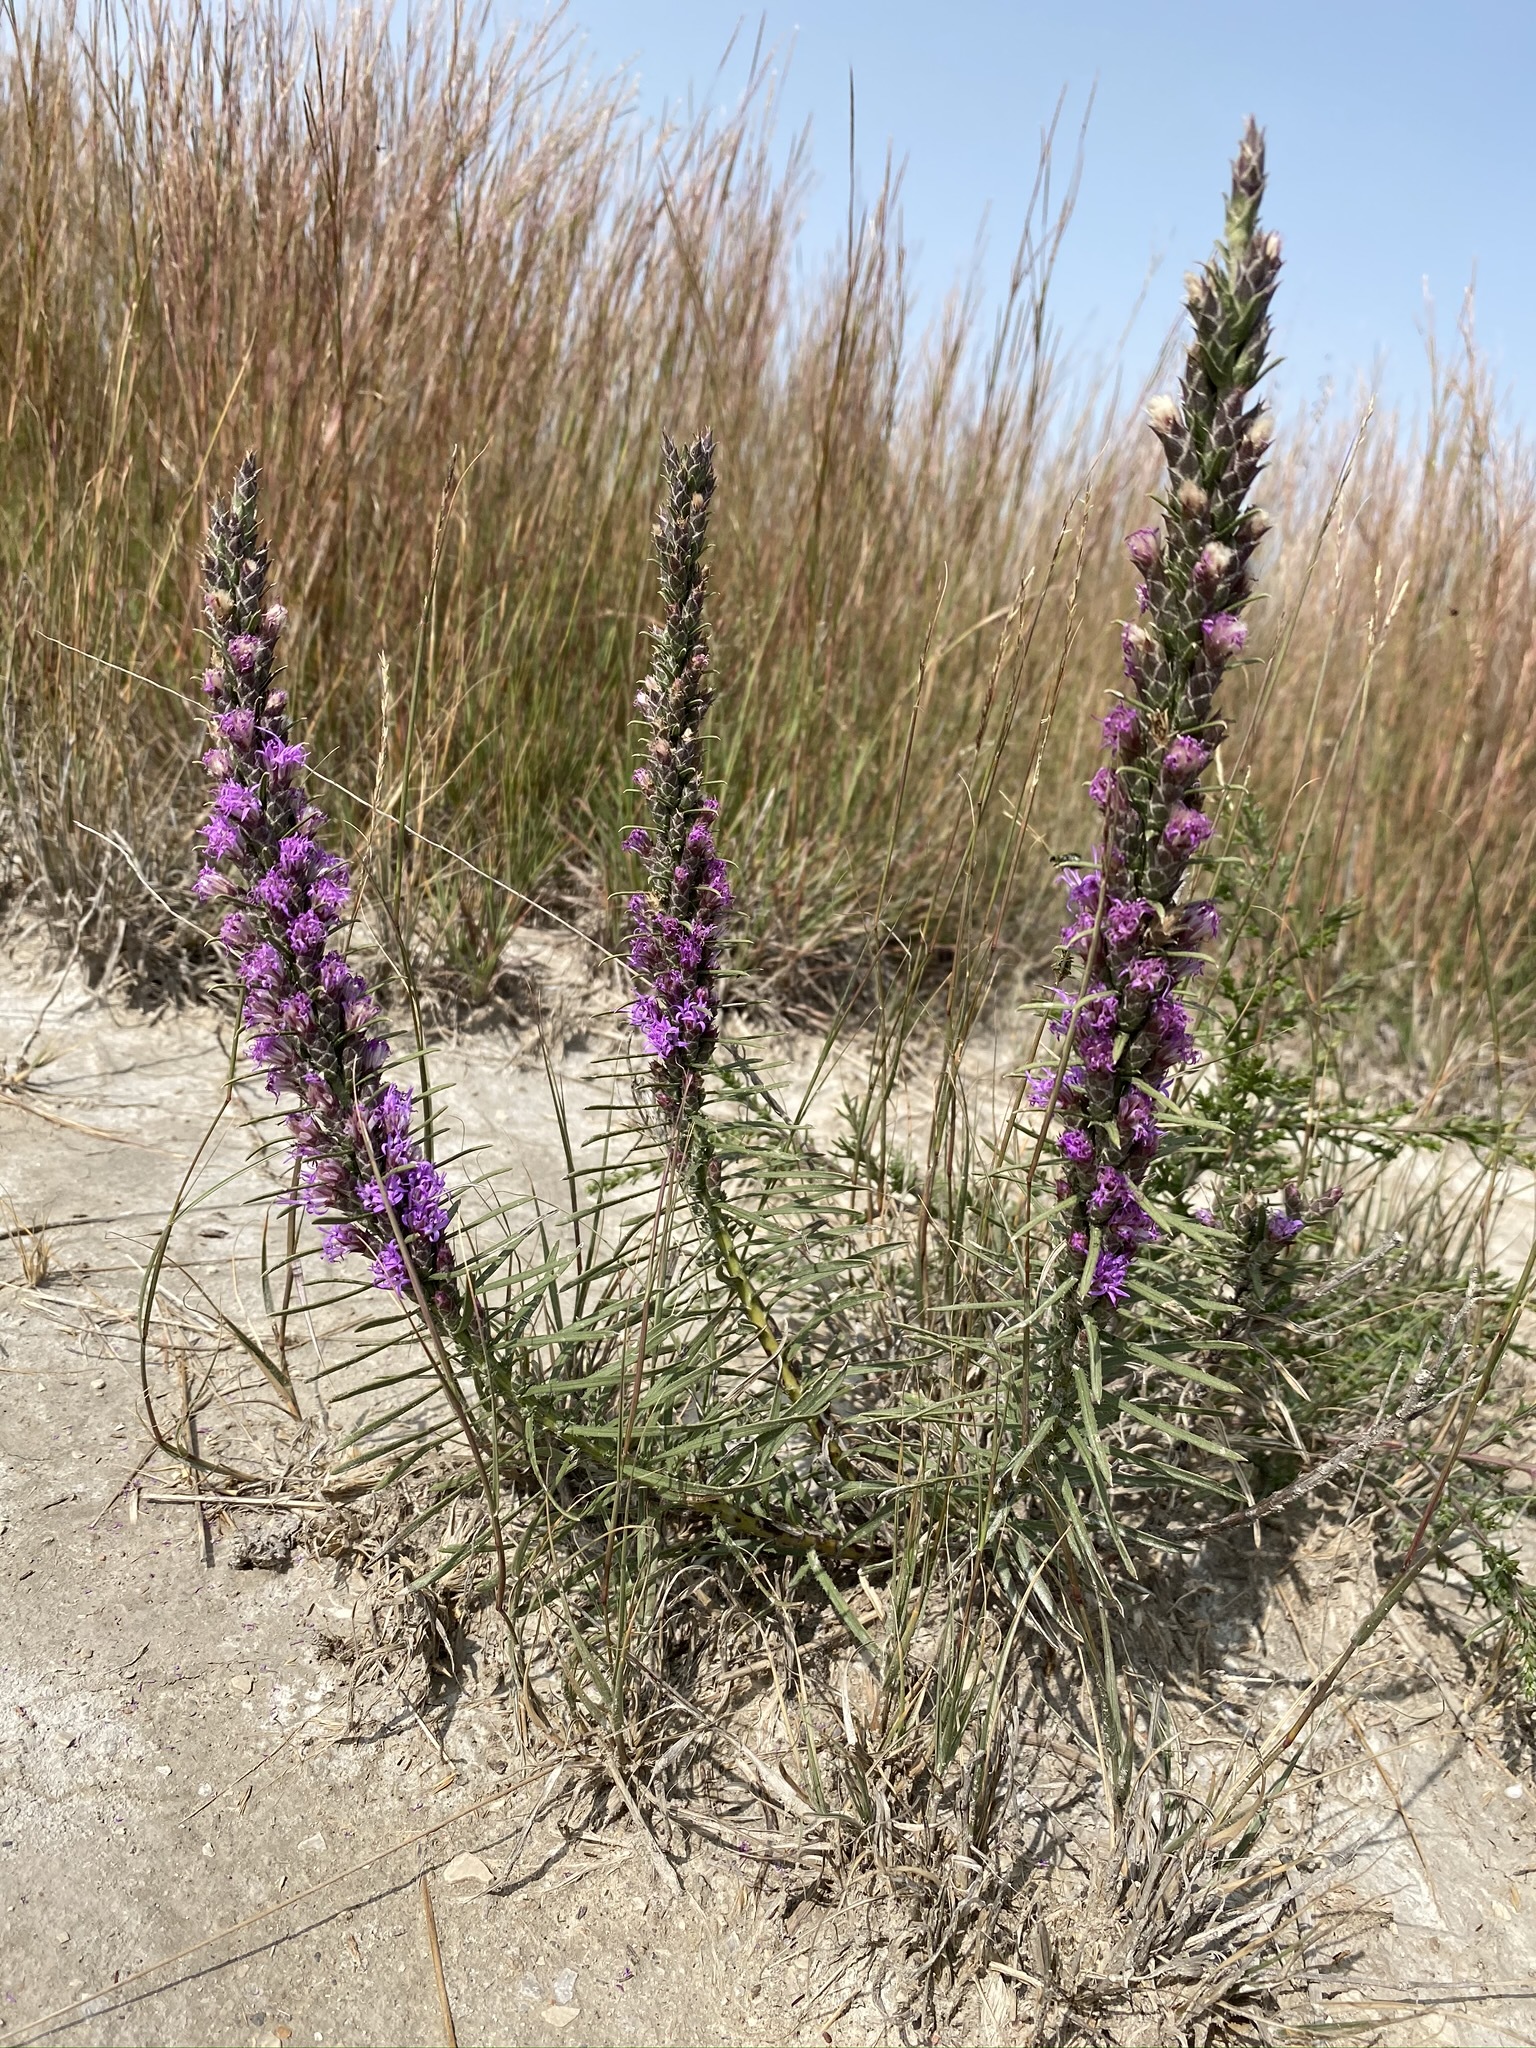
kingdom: Plantae
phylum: Tracheophyta
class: Magnoliopsida
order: Asterales
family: Asteraceae
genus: Liatris
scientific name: Liatris punctata
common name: Dotted gayfeather
